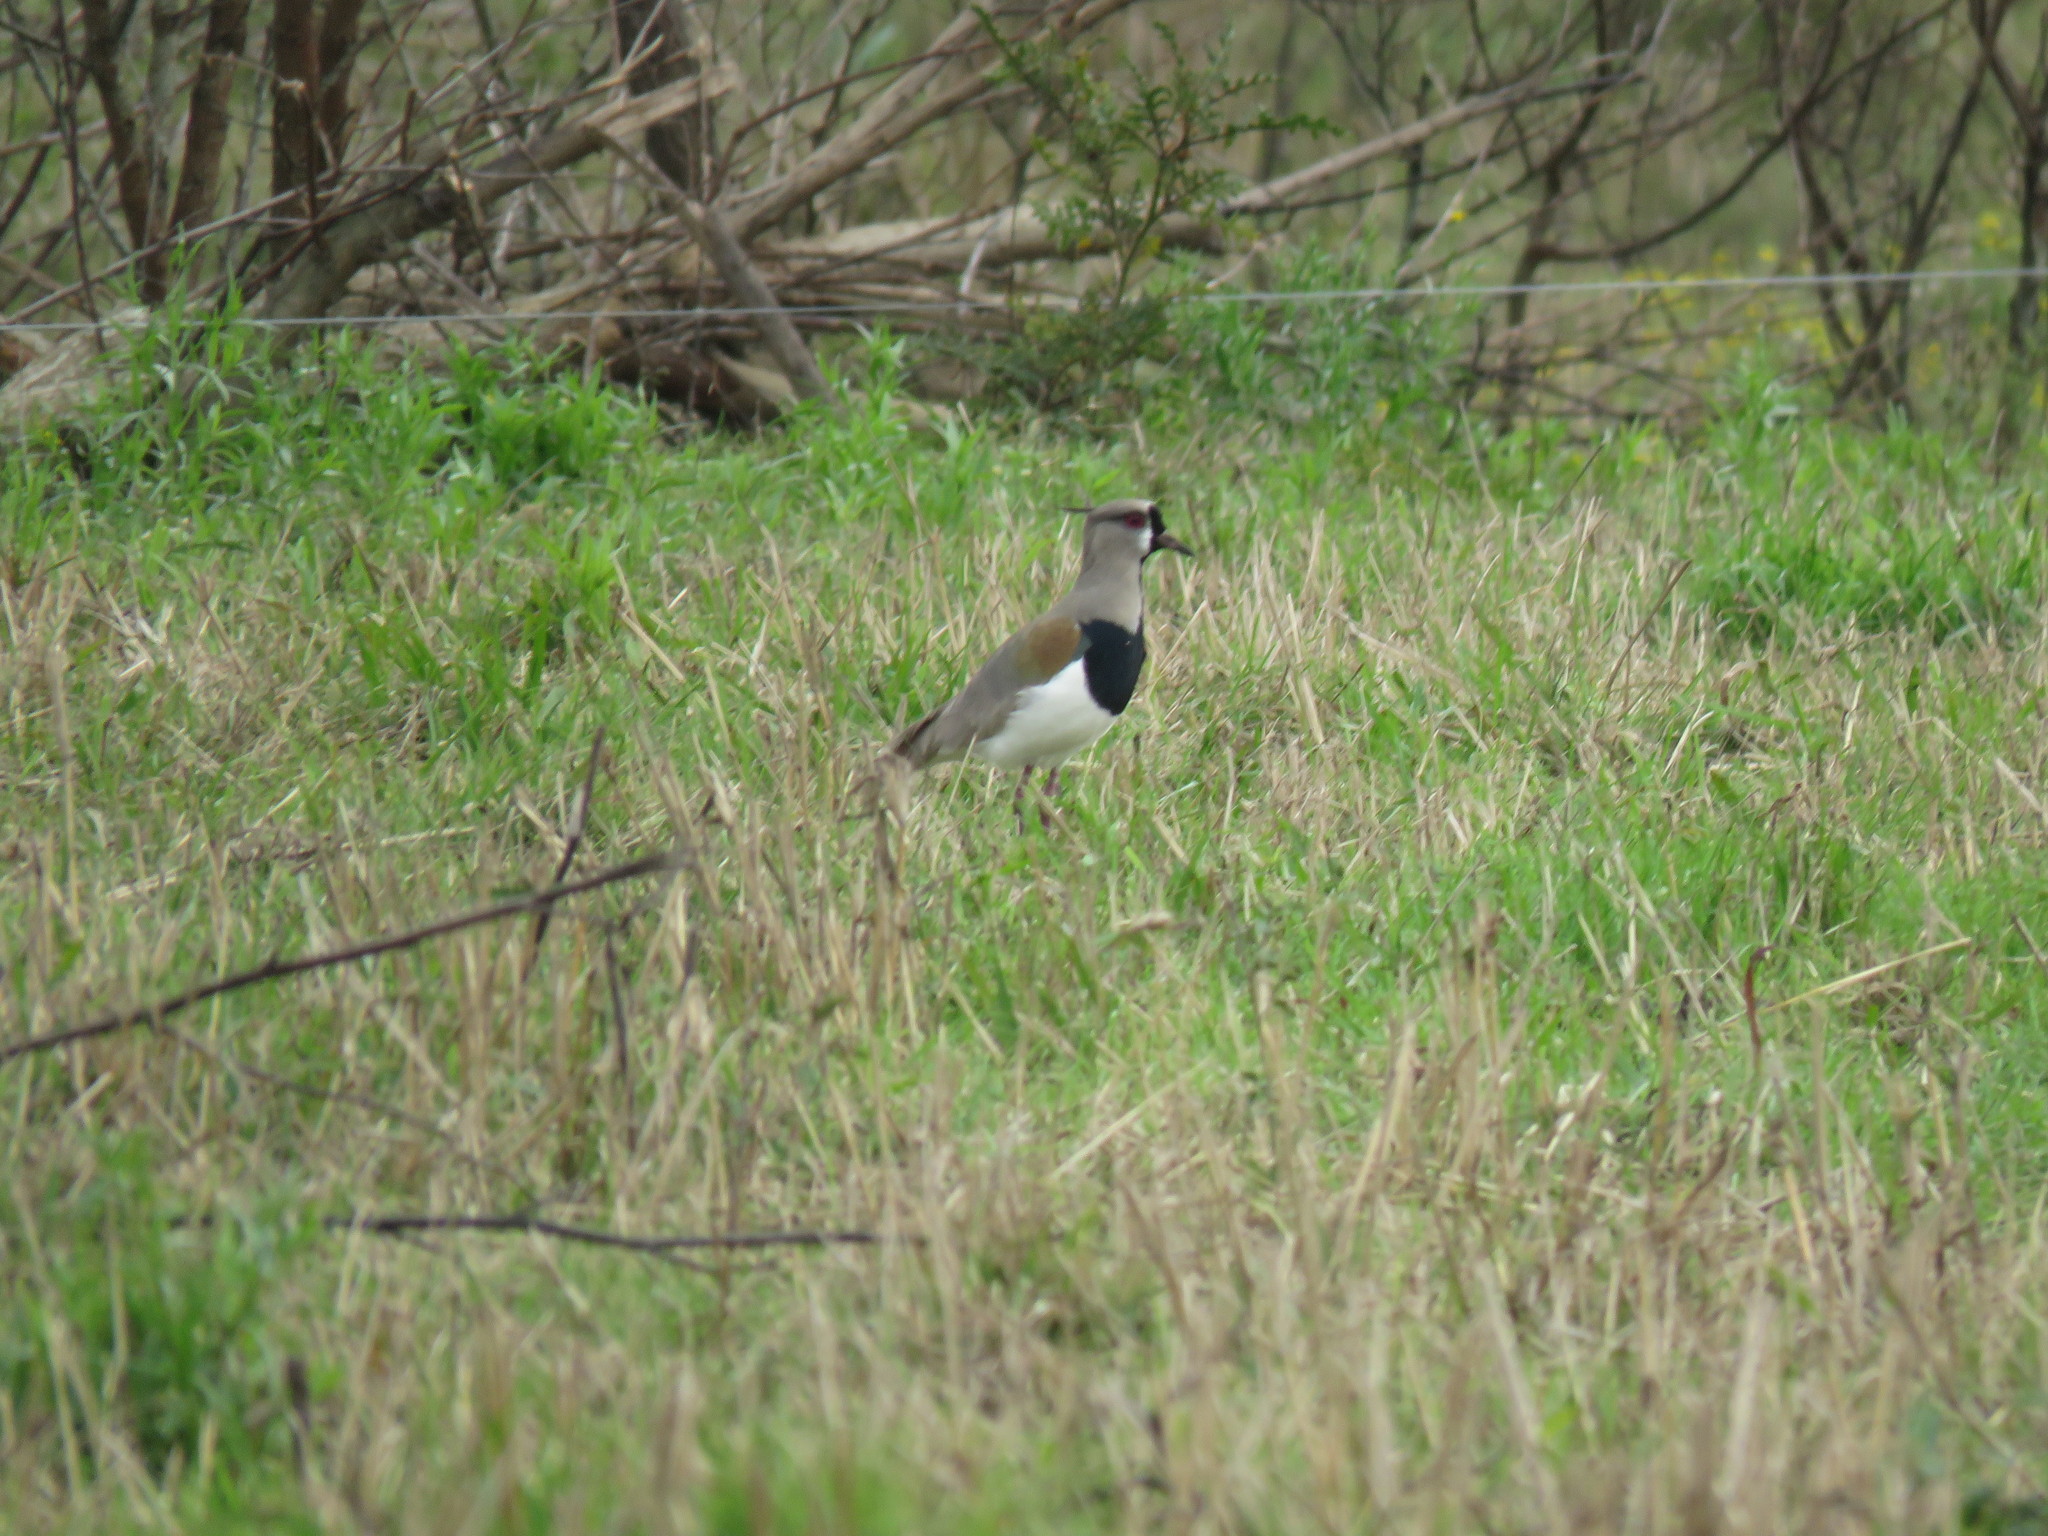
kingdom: Animalia
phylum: Chordata
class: Aves
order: Charadriiformes
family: Charadriidae
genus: Vanellus
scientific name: Vanellus chilensis
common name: Southern lapwing
